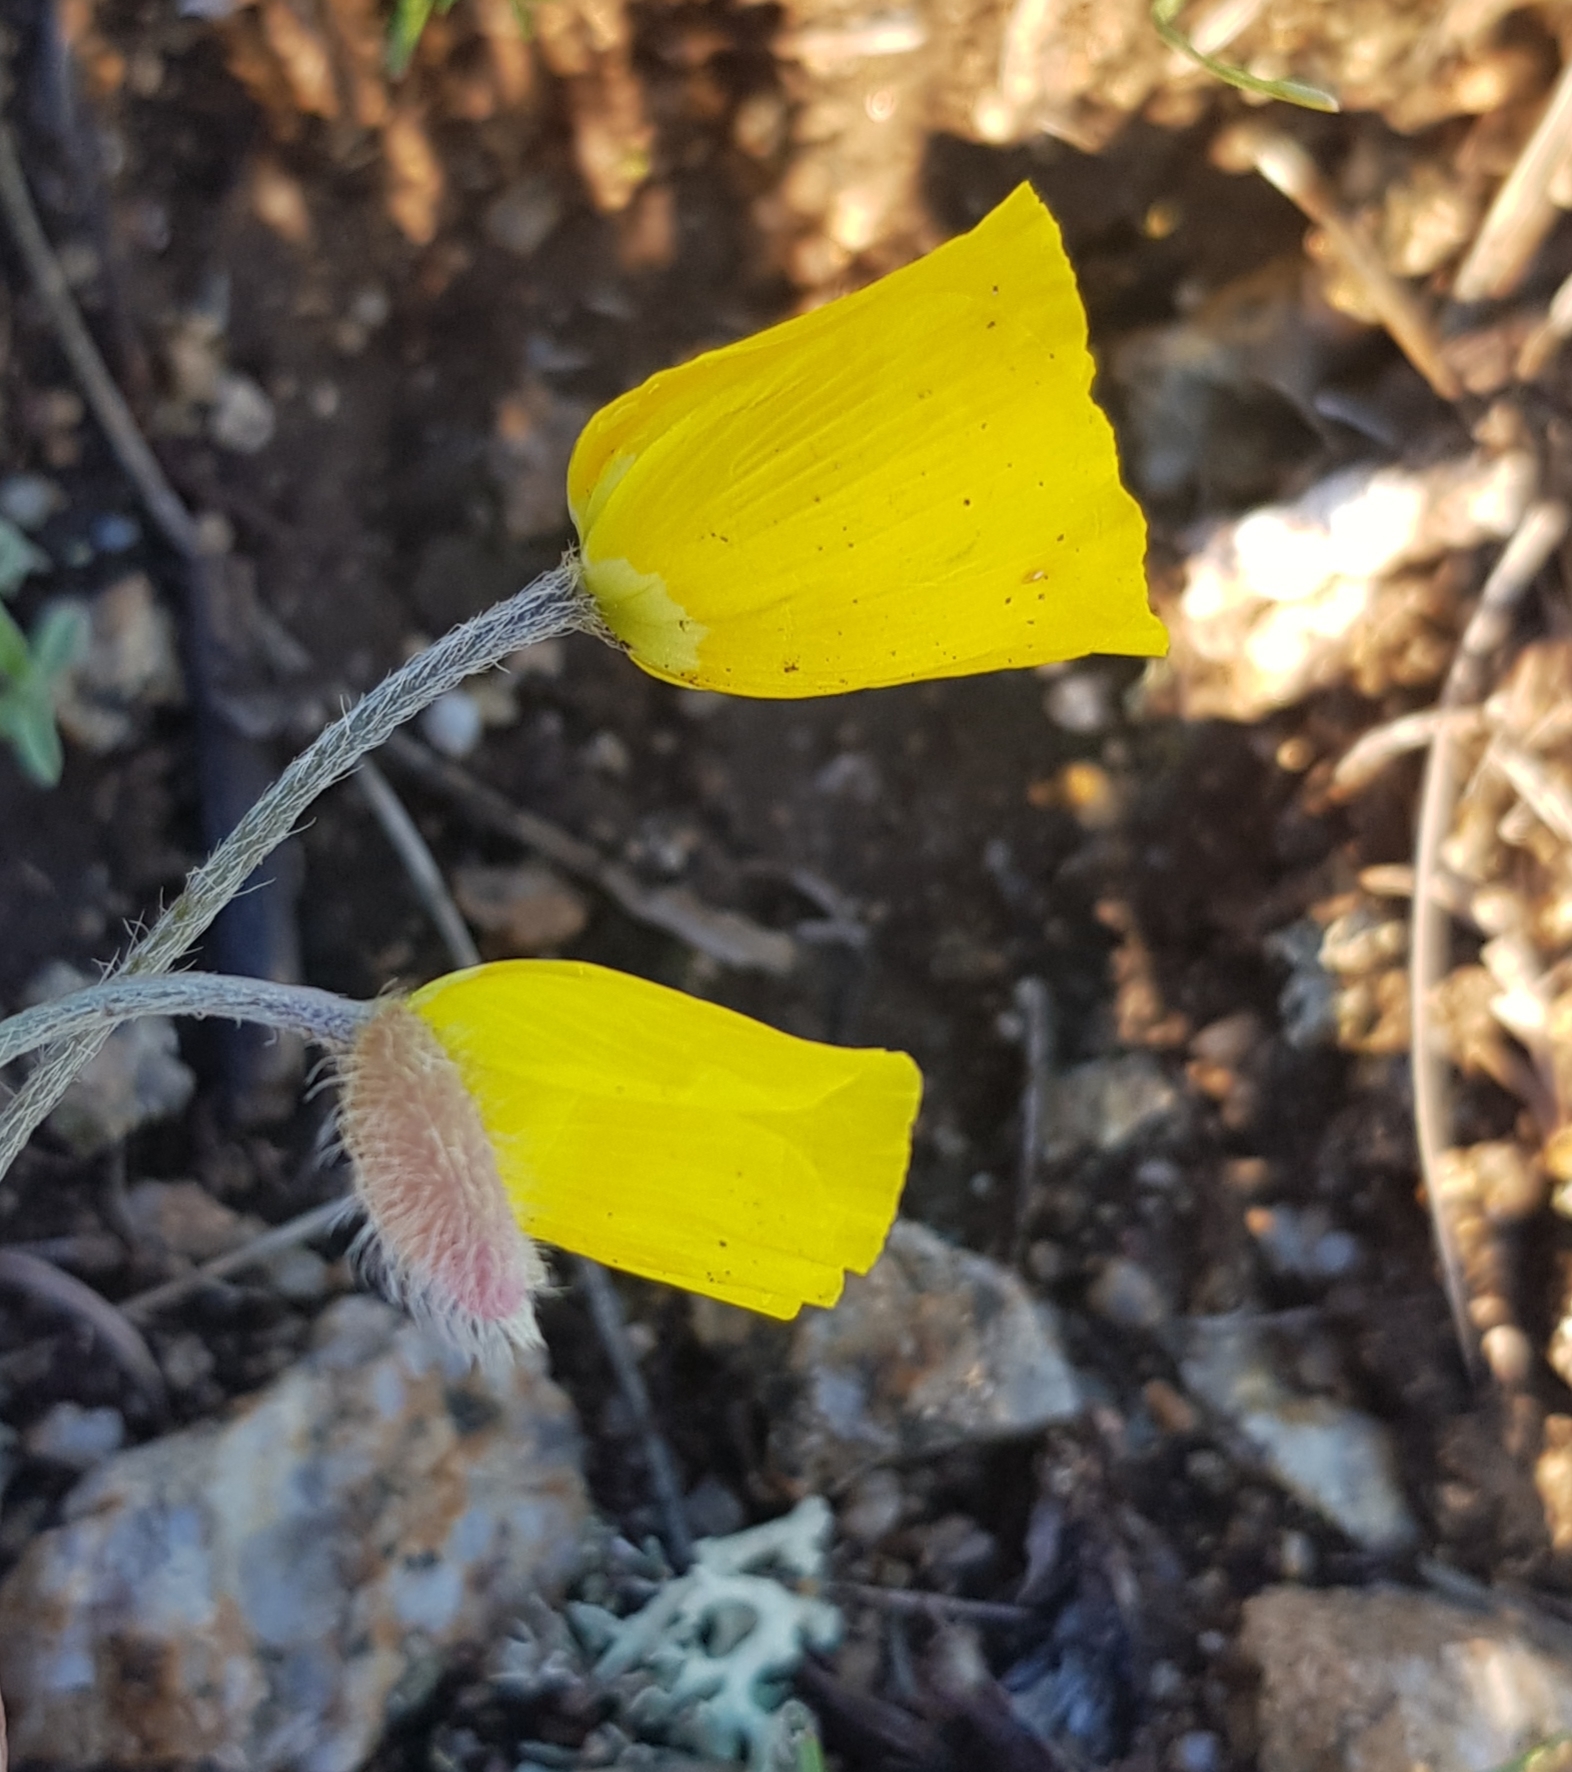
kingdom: Plantae
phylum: Tracheophyta
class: Magnoliopsida
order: Ranunculales
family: Papaveraceae
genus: Papaver
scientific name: Papaver nudicaule
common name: Arctic poppy
